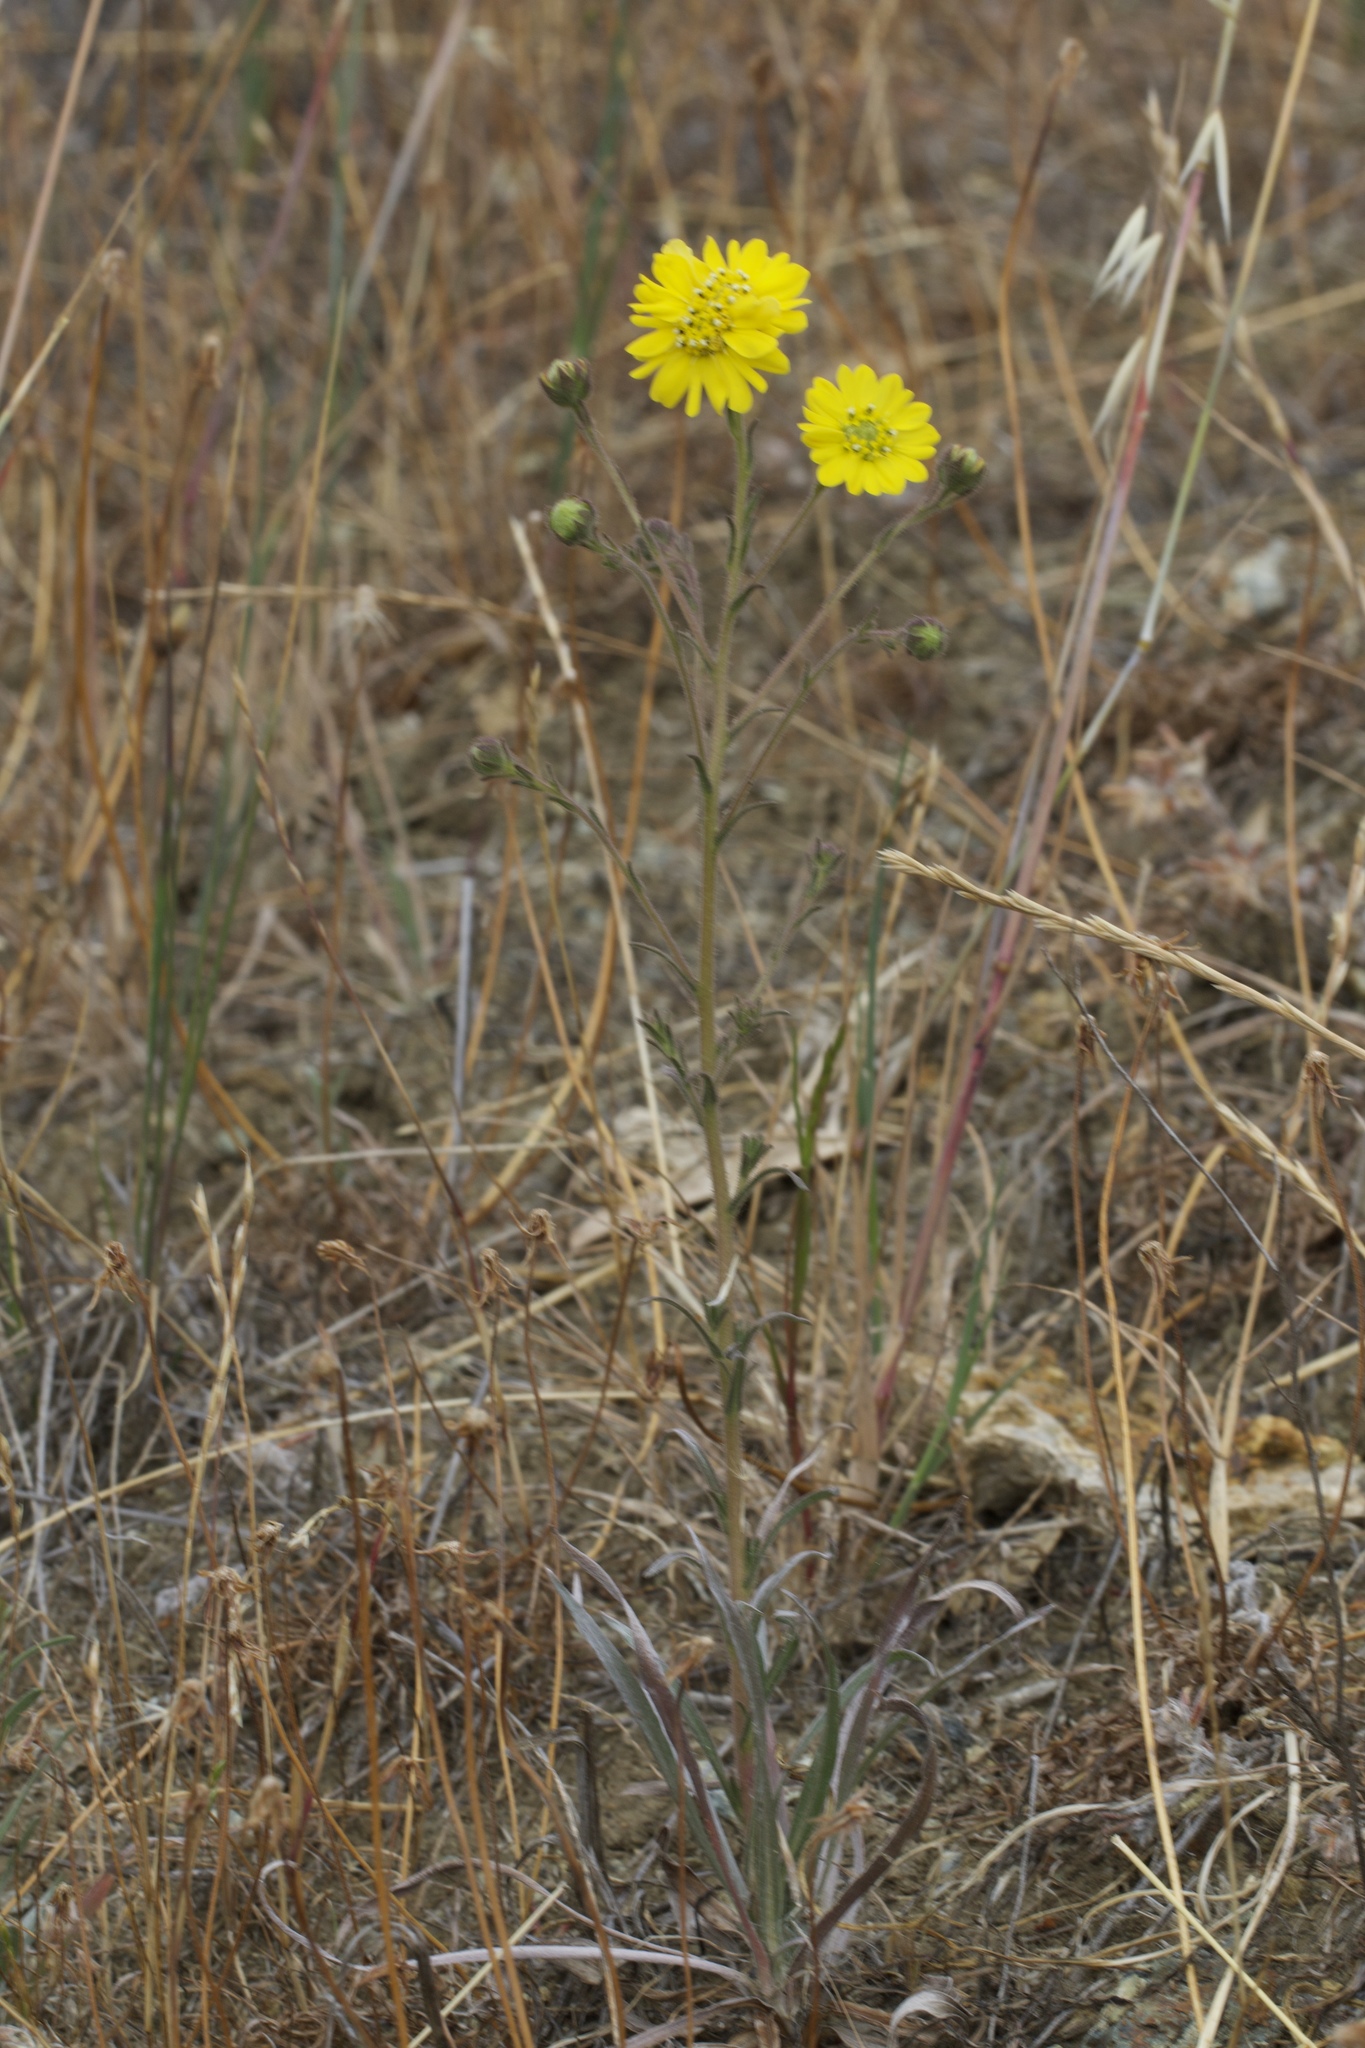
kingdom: Plantae
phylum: Tracheophyta
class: Magnoliopsida
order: Asterales
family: Asteraceae
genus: Hemizonia
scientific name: Hemizonia congesta
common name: Hayfield tarweed
